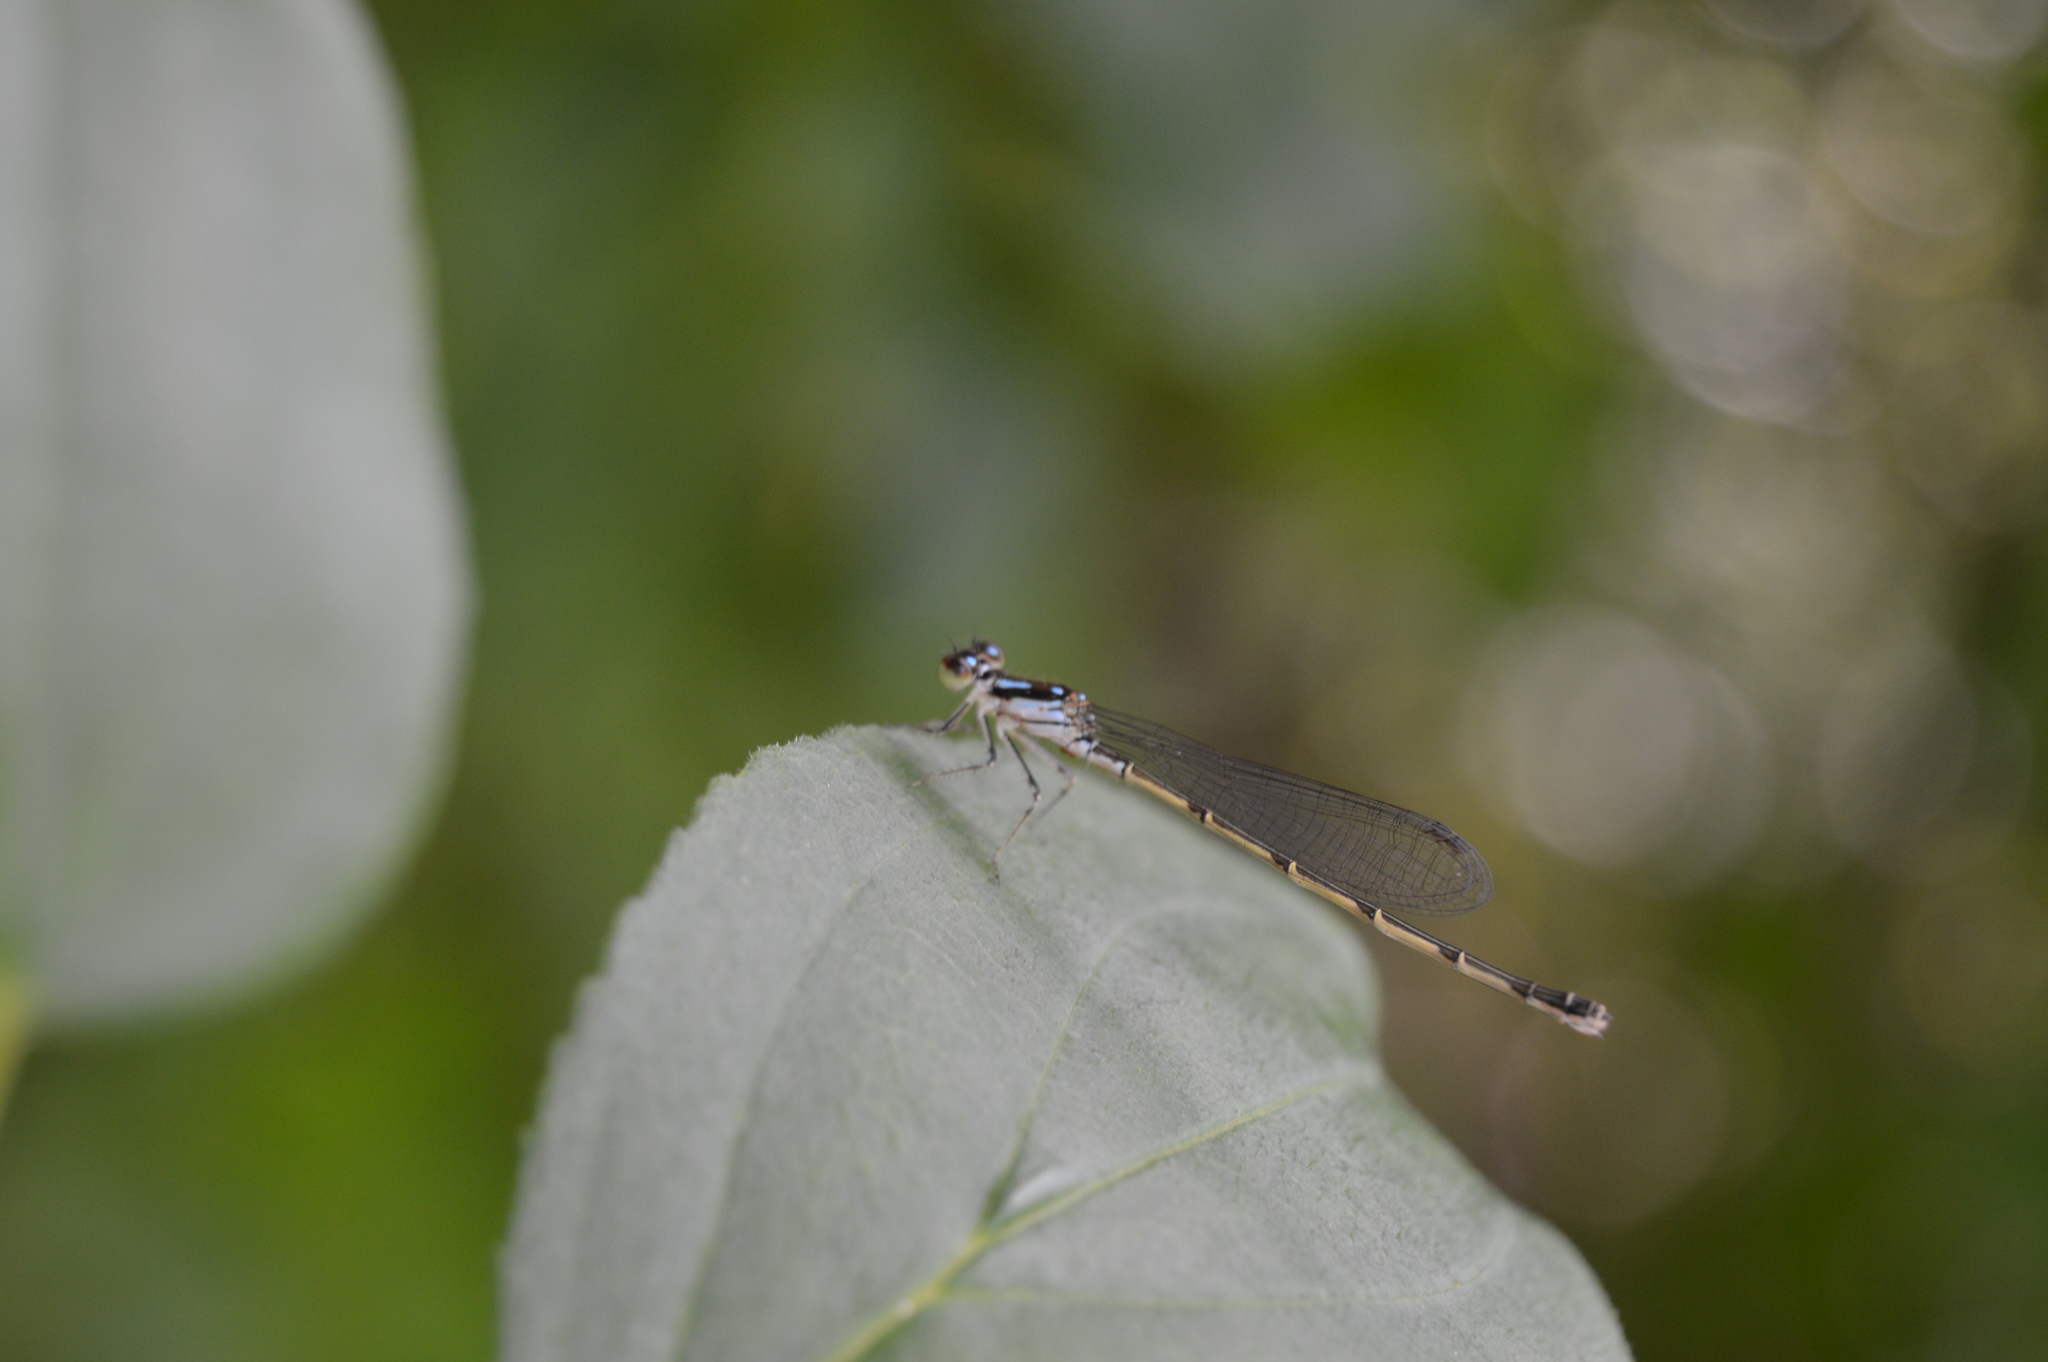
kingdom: Animalia
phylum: Arthropoda
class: Insecta
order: Odonata
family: Coenagrionidae
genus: Ischnura
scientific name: Ischnura posita
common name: Fragile forktail
